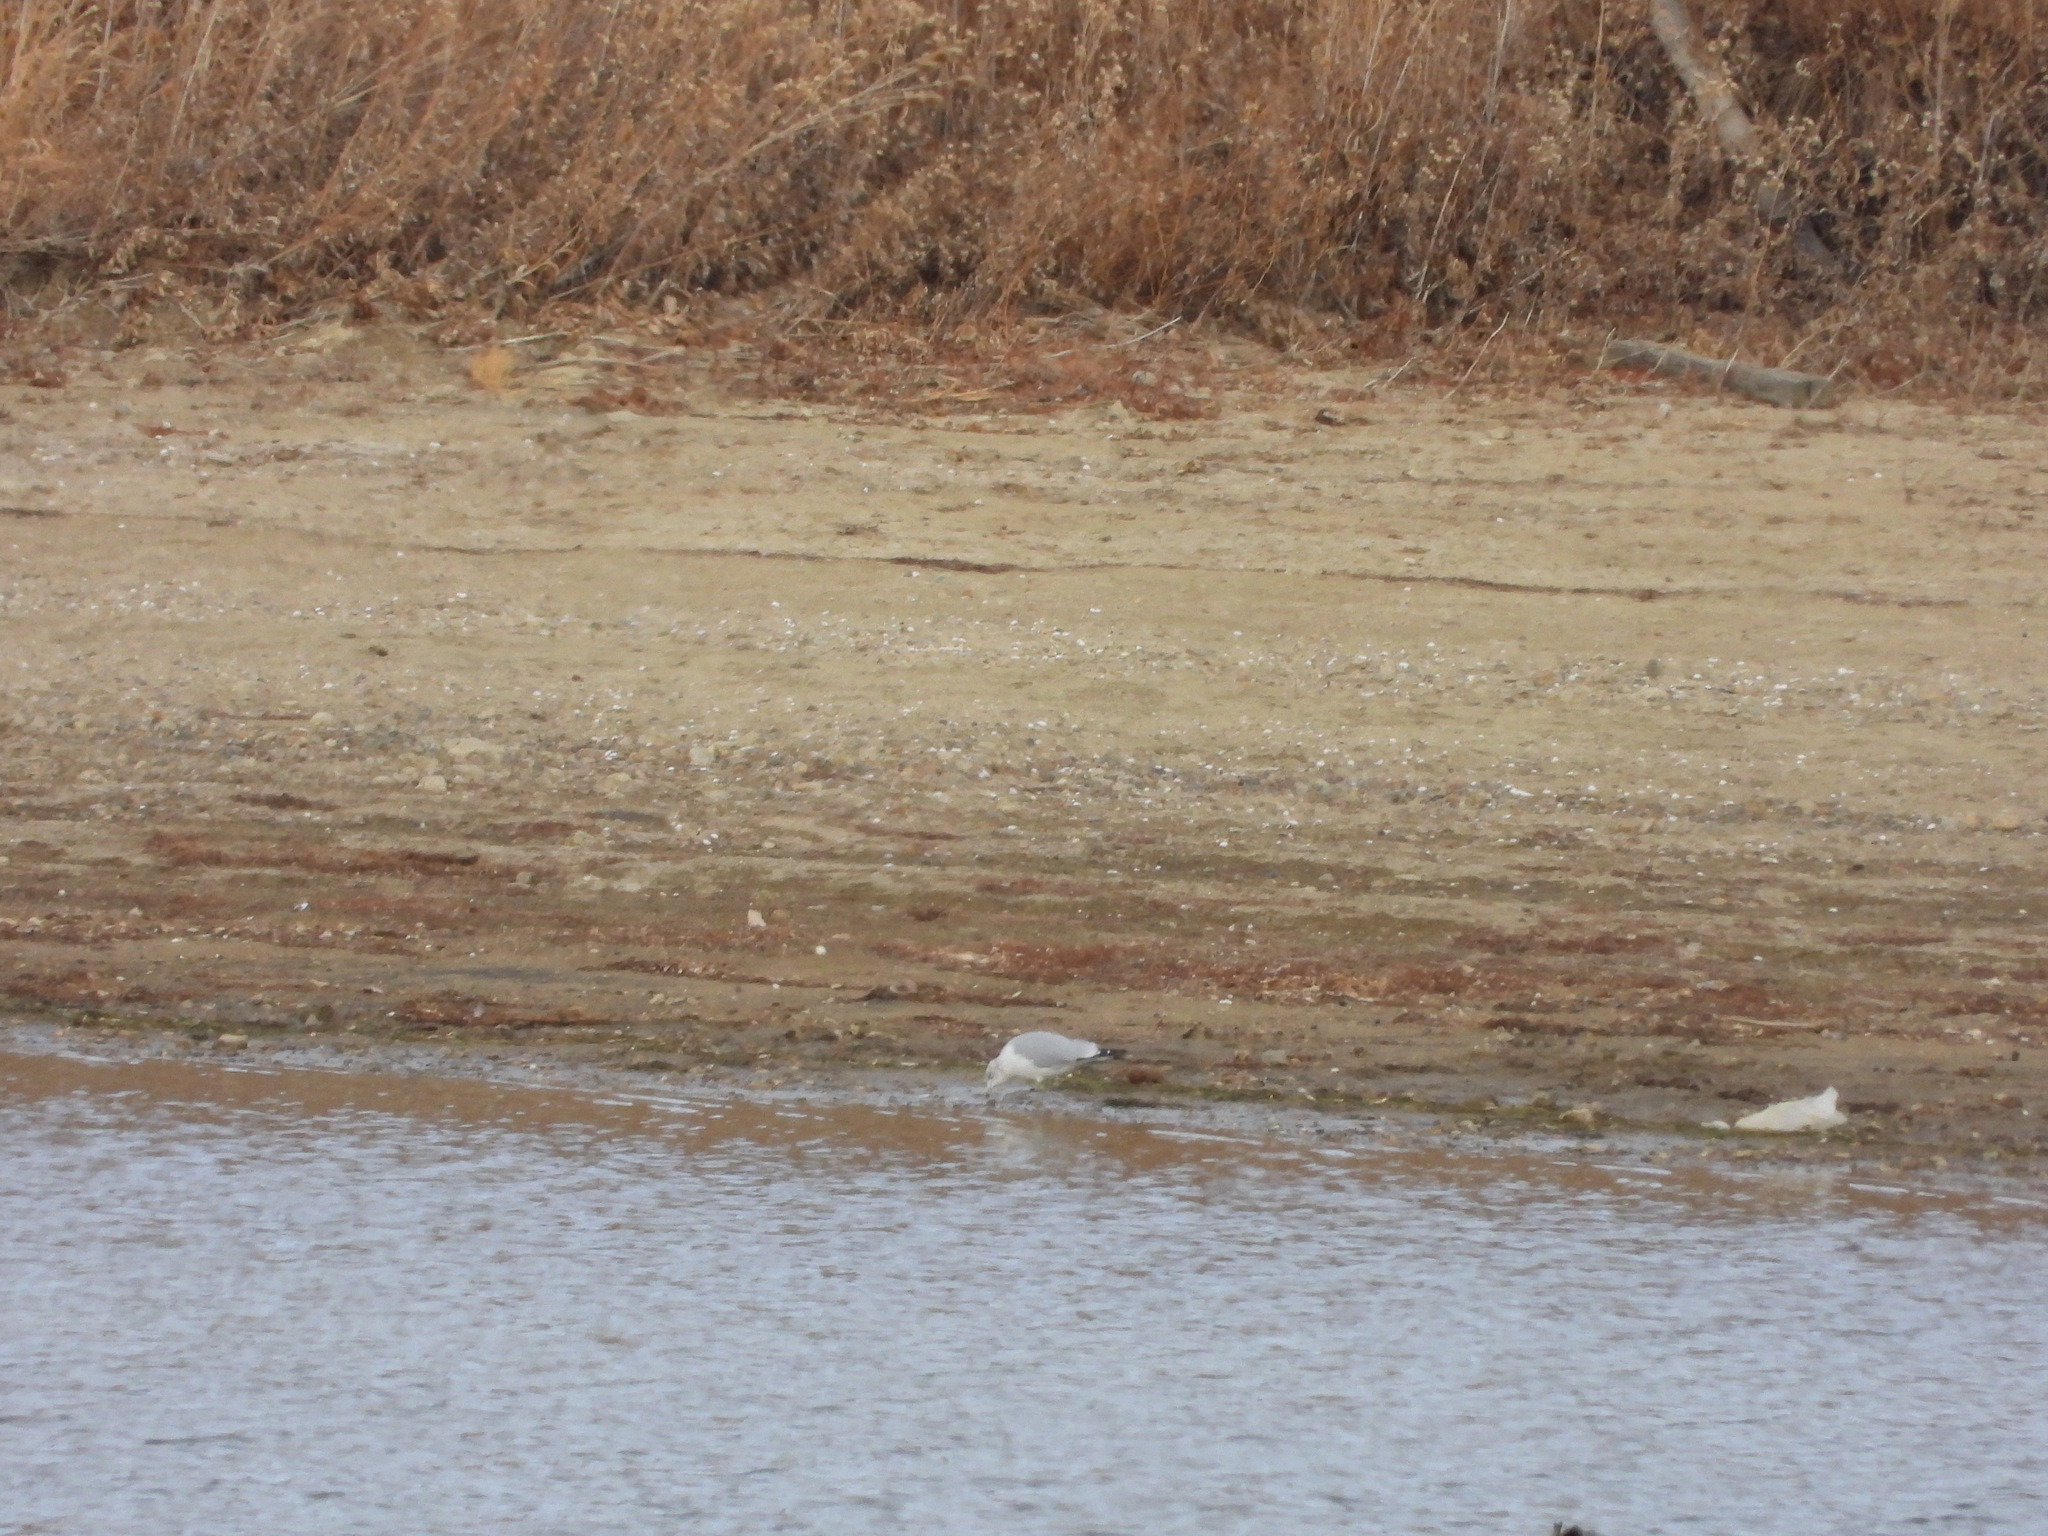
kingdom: Animalia
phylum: Chordata
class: Aves
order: Charadriiformes
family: Laridae
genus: Larus
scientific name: Larus delawarensis
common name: Ring-billed gull
